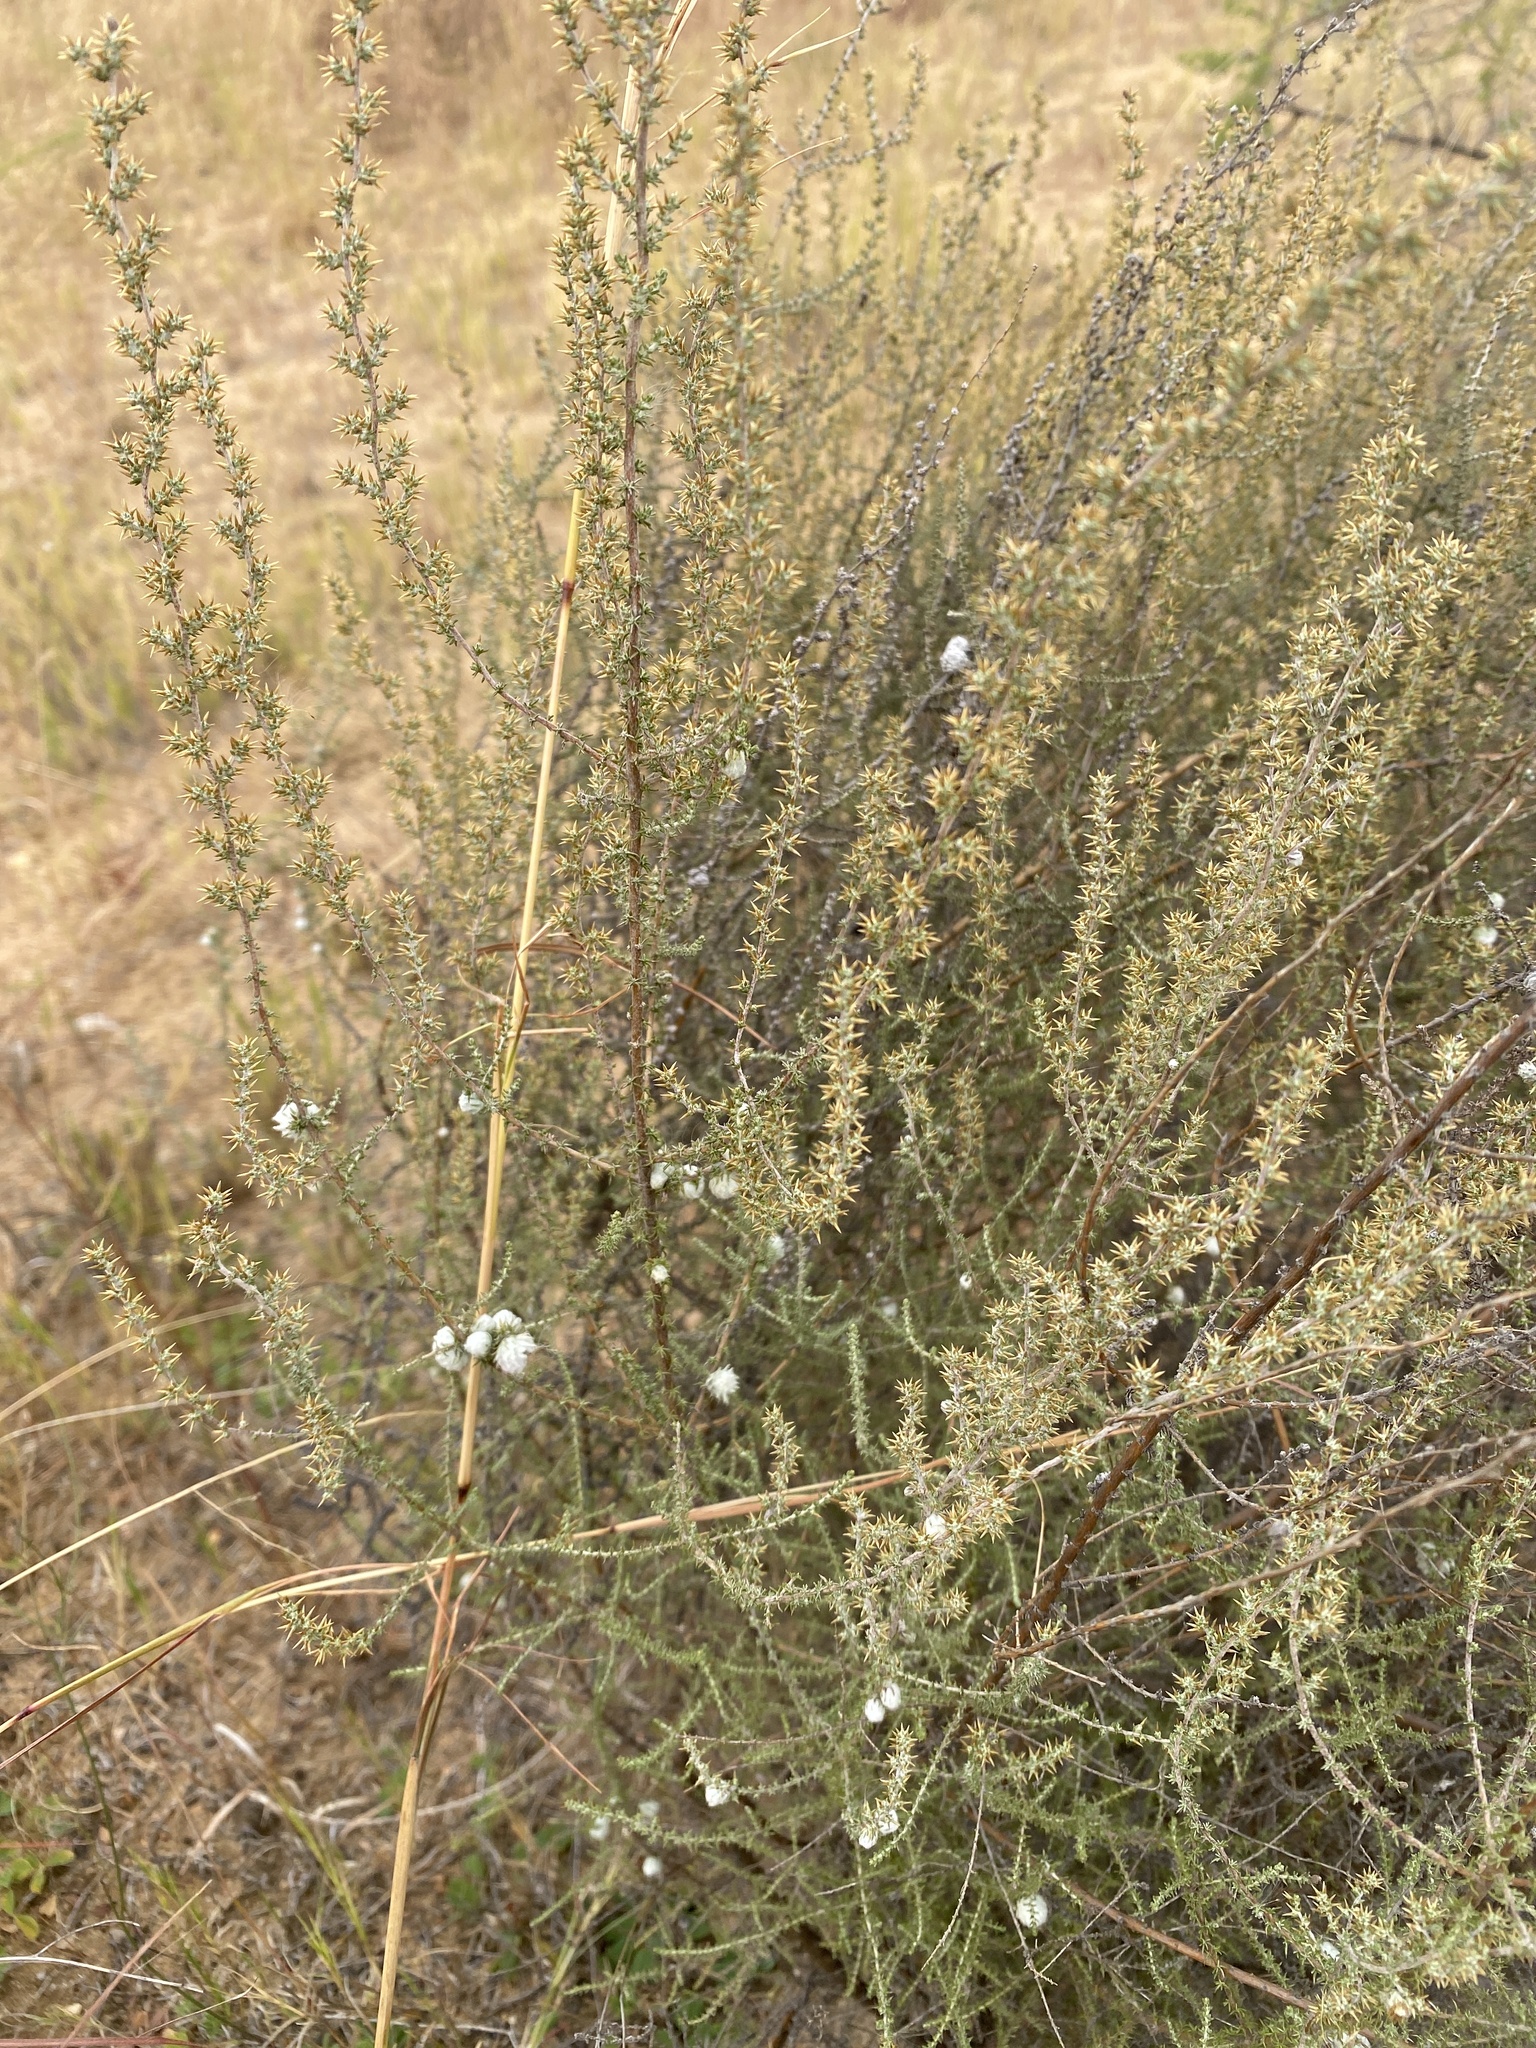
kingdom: Plantae
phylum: Tracheophyta
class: Magnoliopsida
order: Asterales
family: Asteraceae
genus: Seriphium
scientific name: Seriphium
